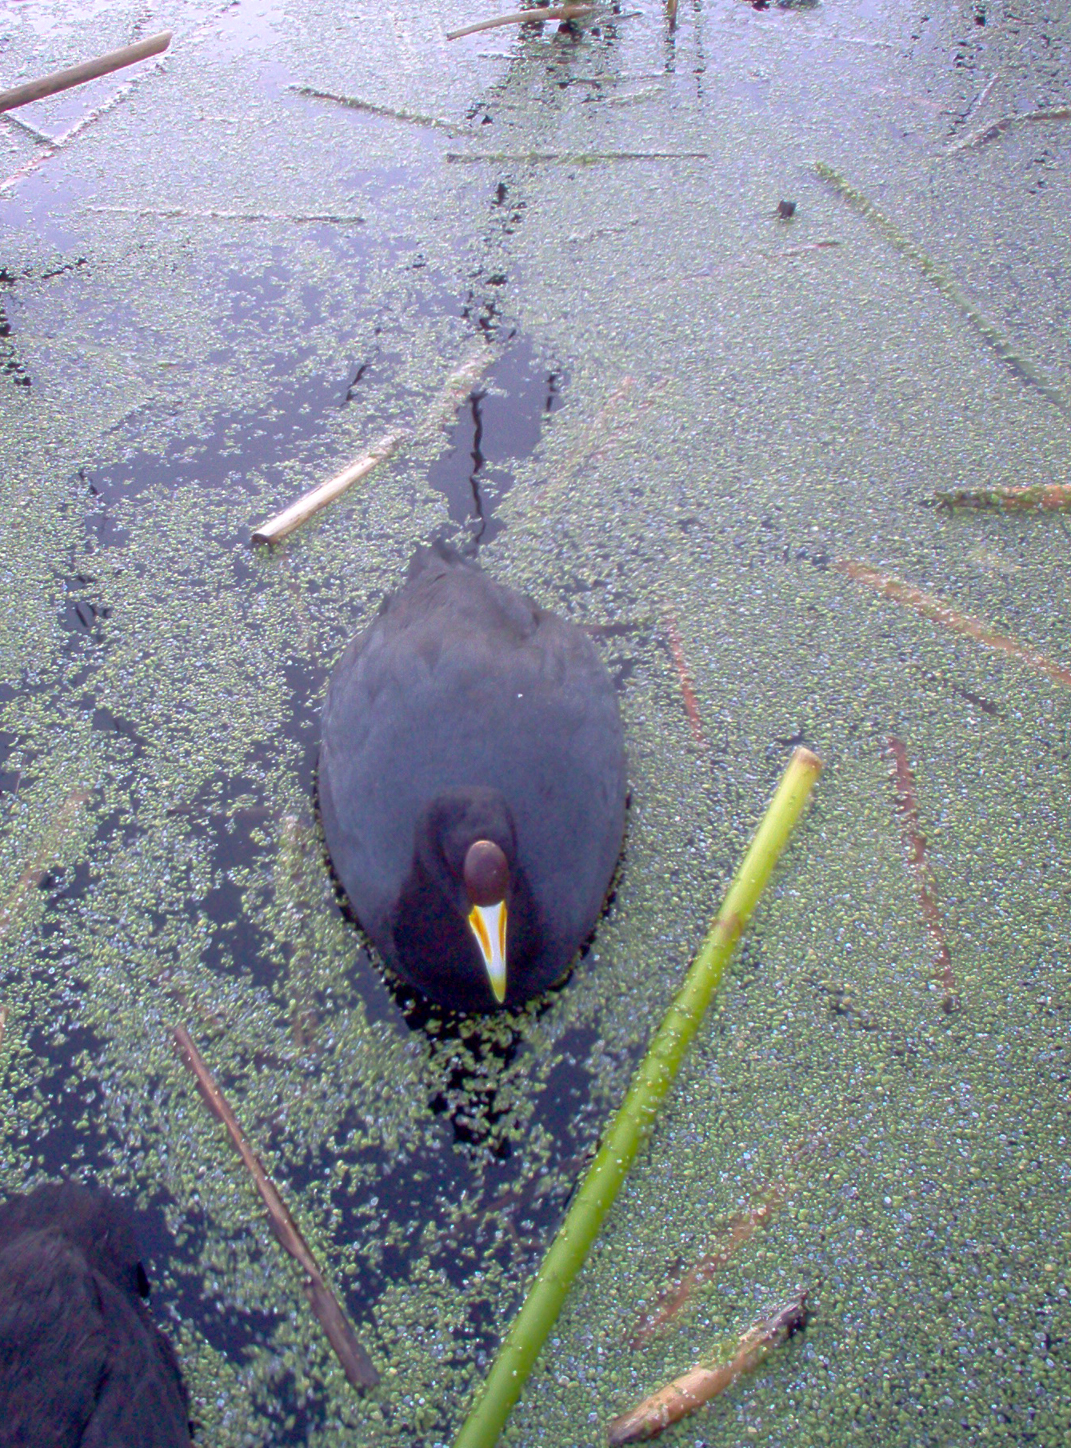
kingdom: Animalia
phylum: Chordata
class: Aves
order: Gruiformes
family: Rallidae
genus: Fulica
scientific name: Fulica ardesiaca
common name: Andean coot
